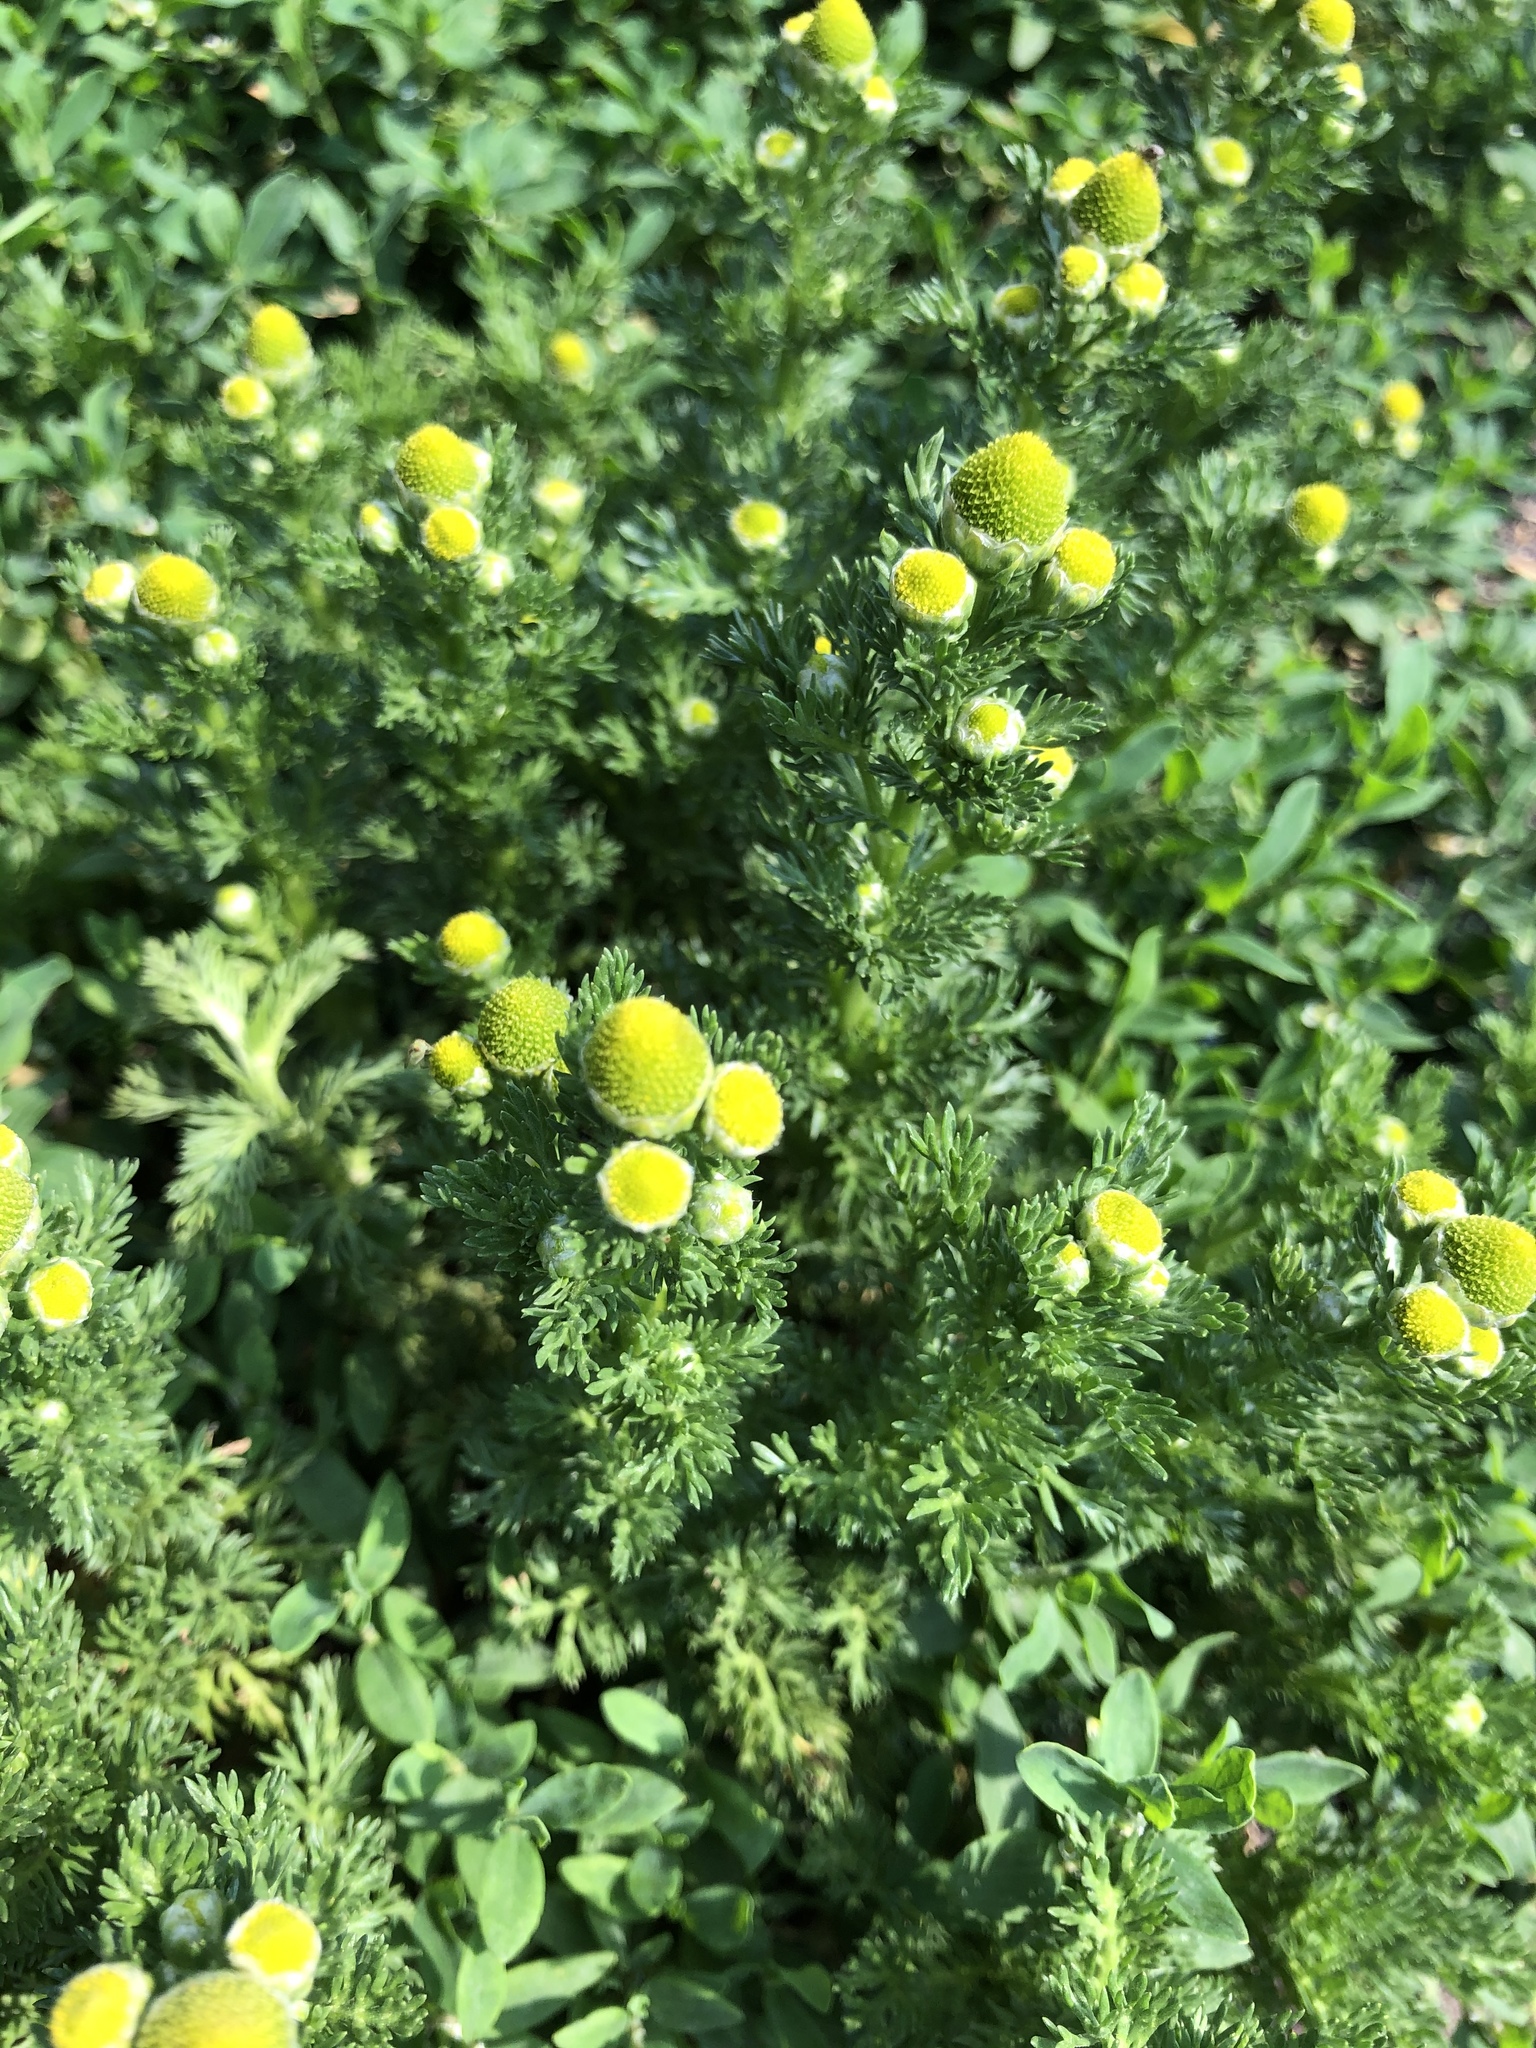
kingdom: Plantae
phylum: Tracheophyta
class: Magnoliopsida
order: Asterales
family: Asteraceae
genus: Matricaria
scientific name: Matricaria discoidea
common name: Disc mayweed
